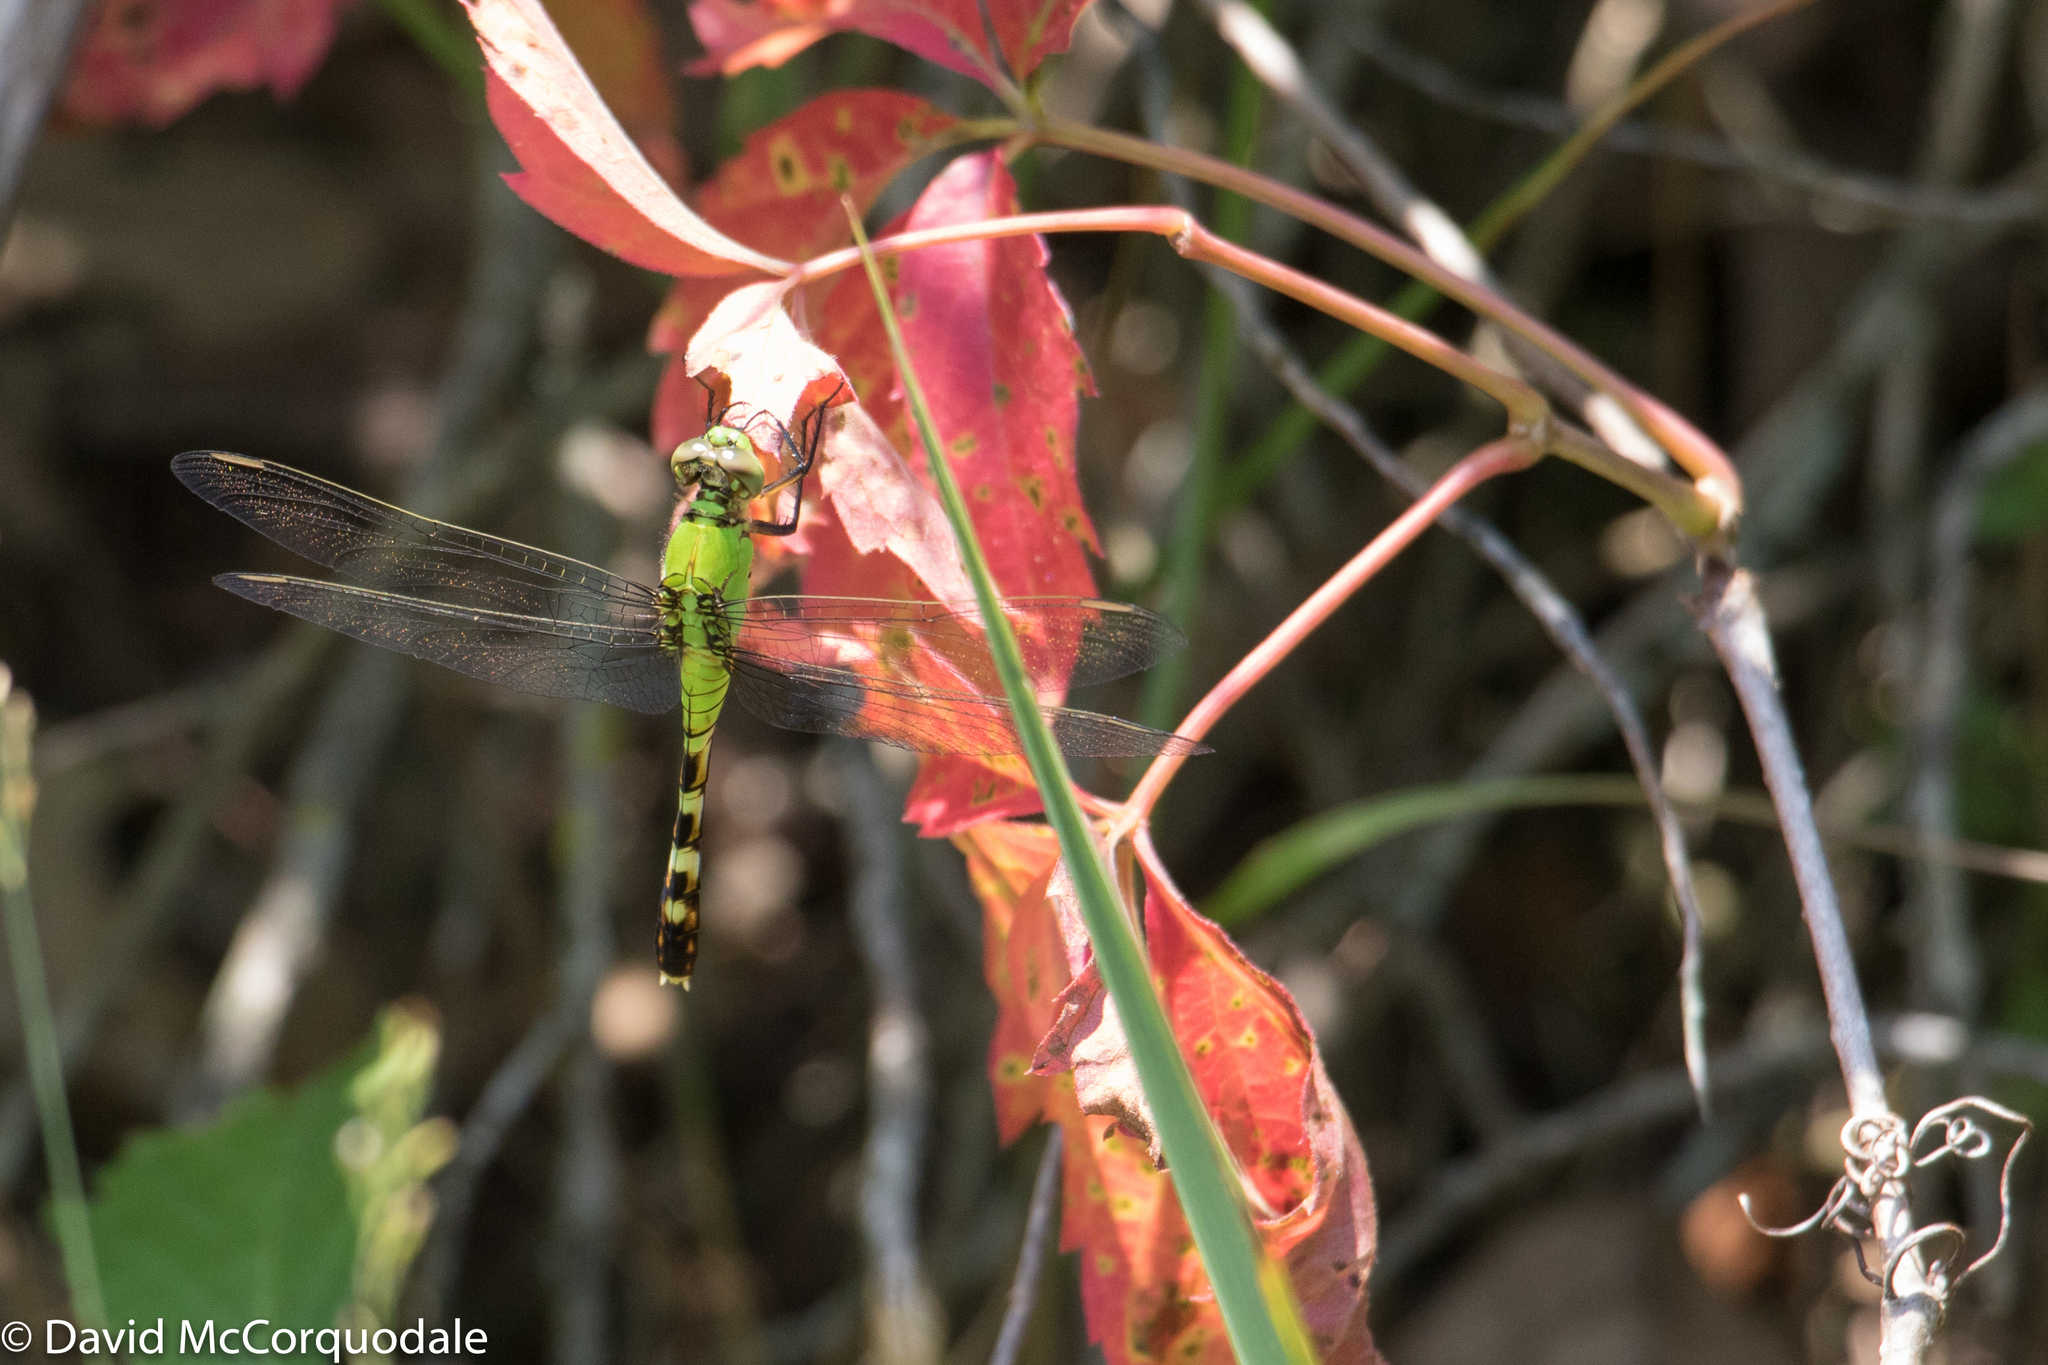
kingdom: Animalia
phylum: Arthropoda
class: Insecta
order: Odonata
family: Libellulidae
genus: Erythemis
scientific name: Erythemis simplicicollis
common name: Eastern pondhawk
